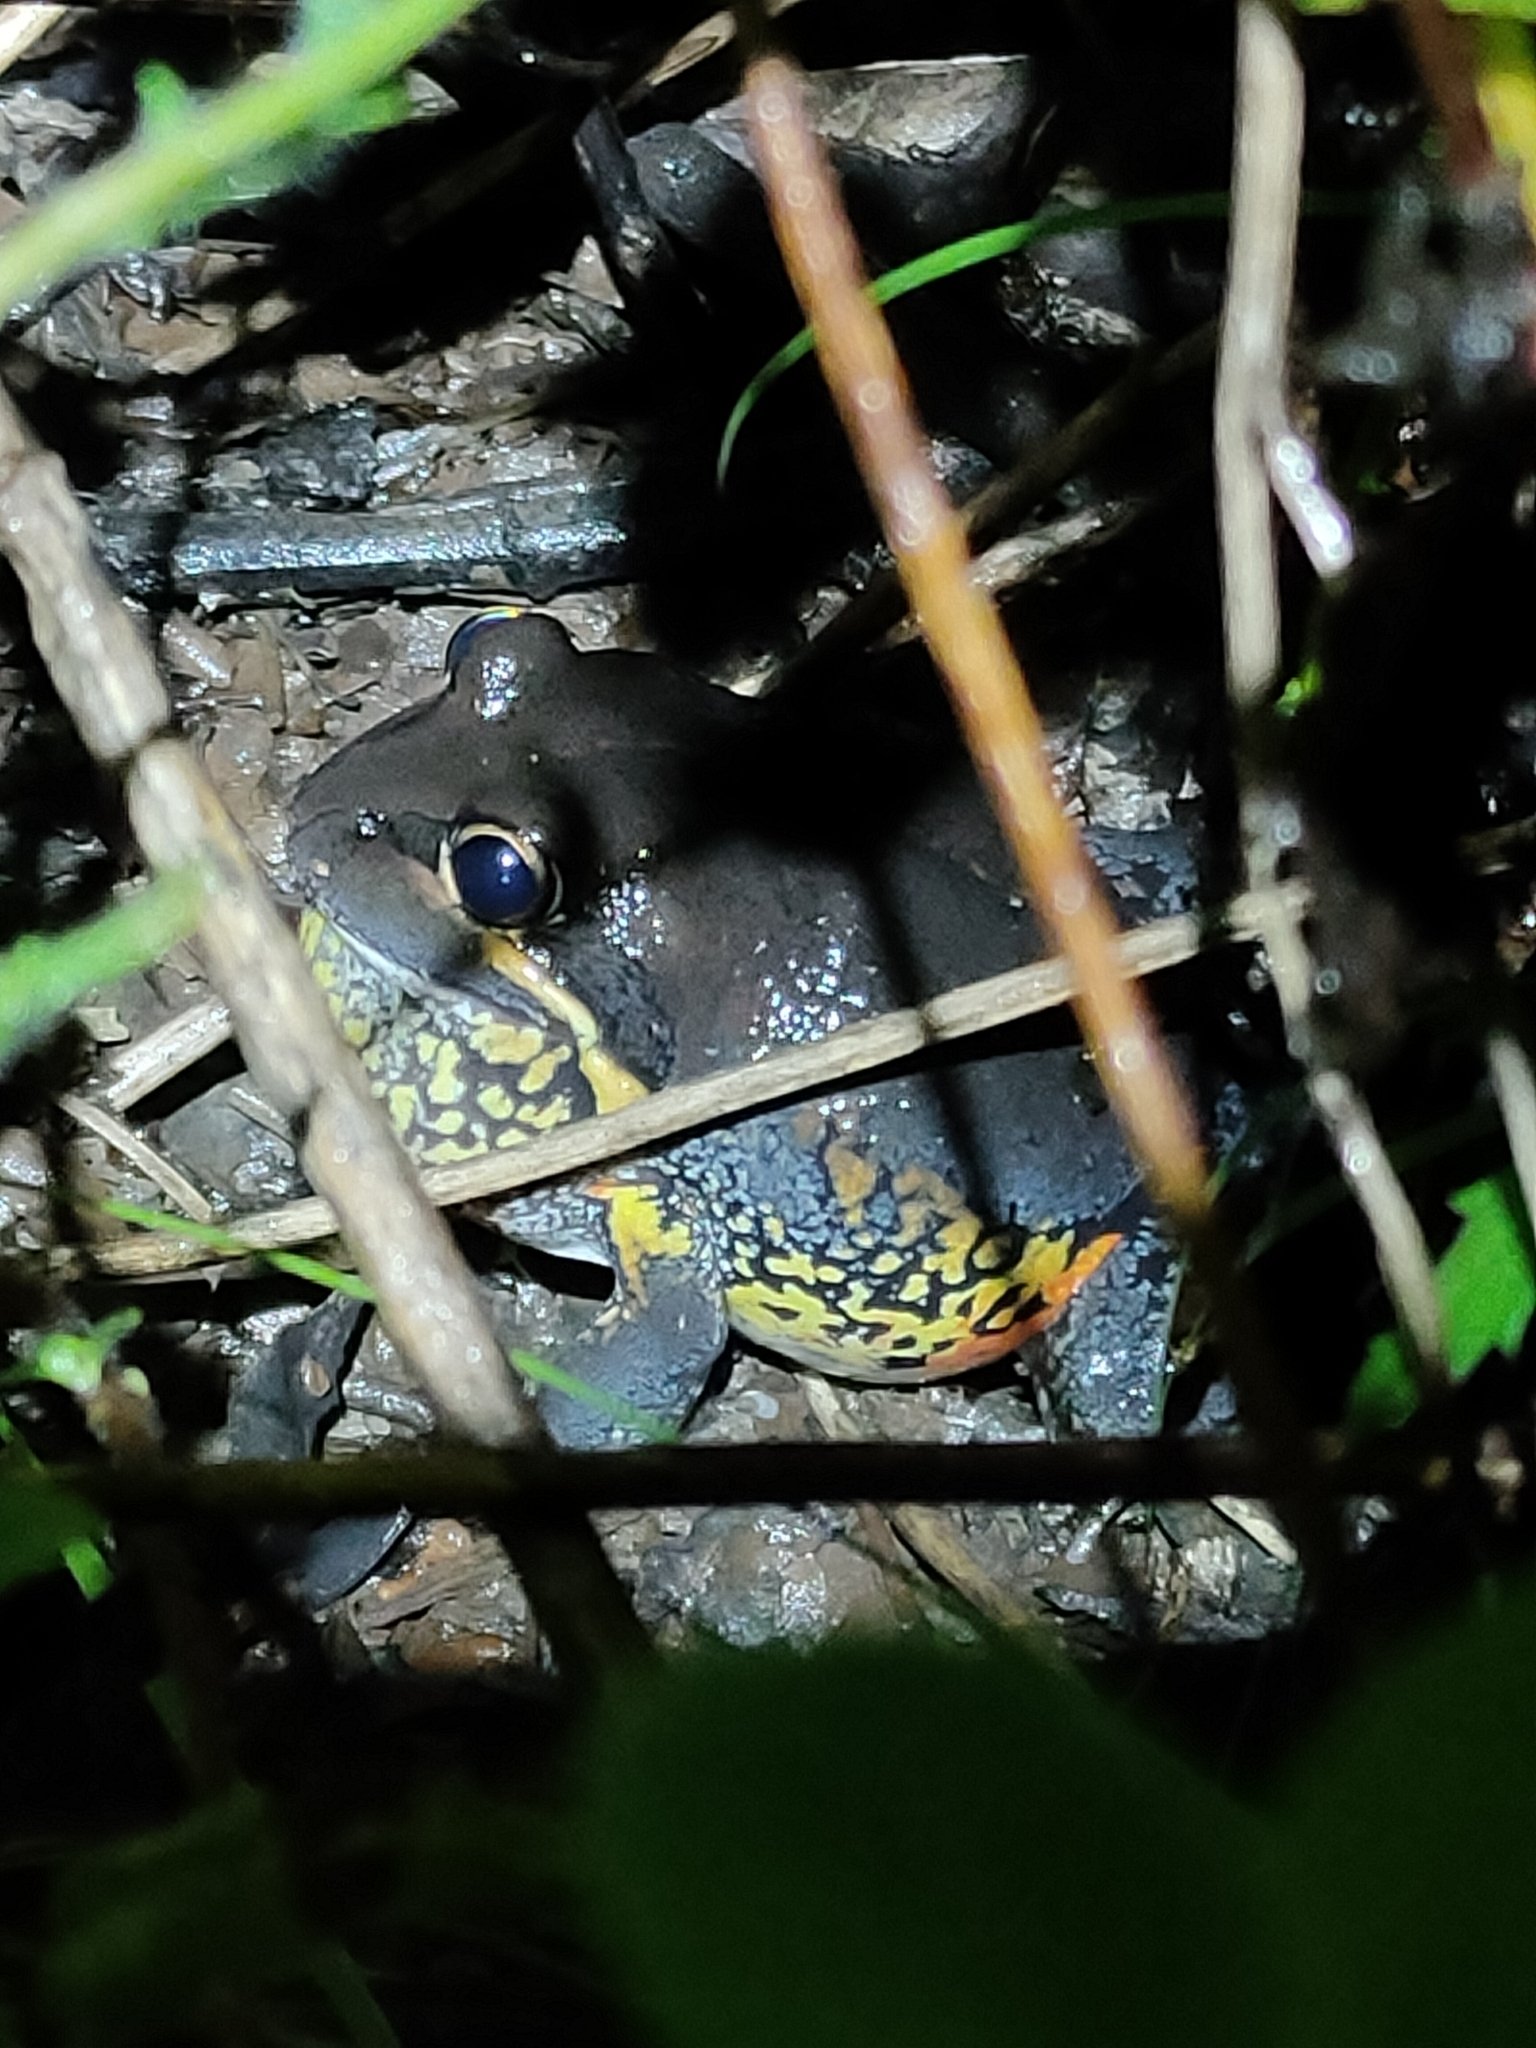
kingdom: Animalia
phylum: Chordata
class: Amphibia
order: Anura
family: Limnodynastidae
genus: Limnodynastes
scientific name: Limnodynastes terraereginae
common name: Northern banjo frog
